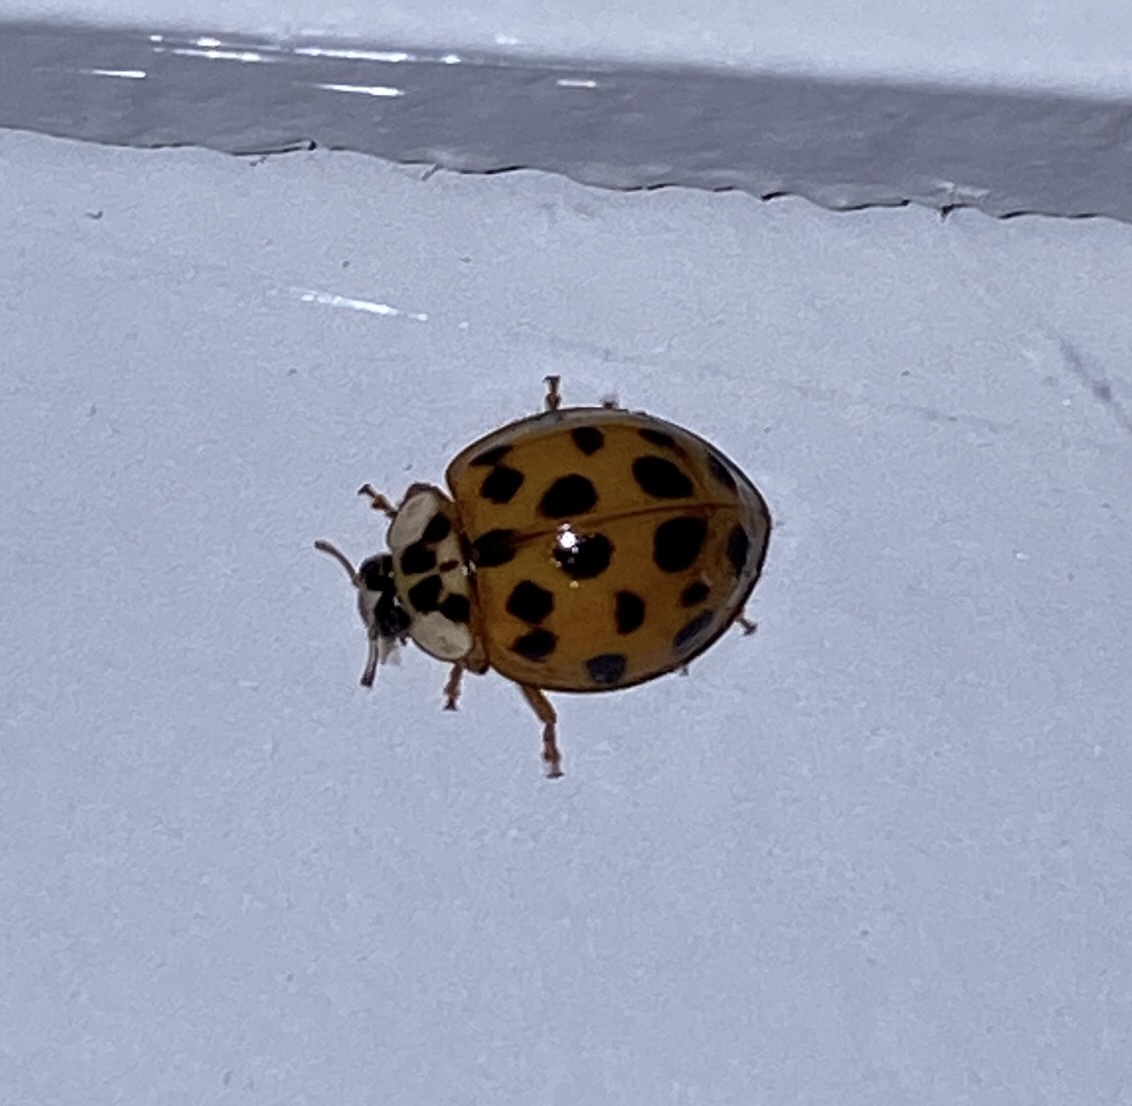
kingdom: Animalia
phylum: Arthropoda
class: Insecta
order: Coleoptera
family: Coccinellidae
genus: Harmonia
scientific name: Harmonia axyridis
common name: Harlequin ladybird
